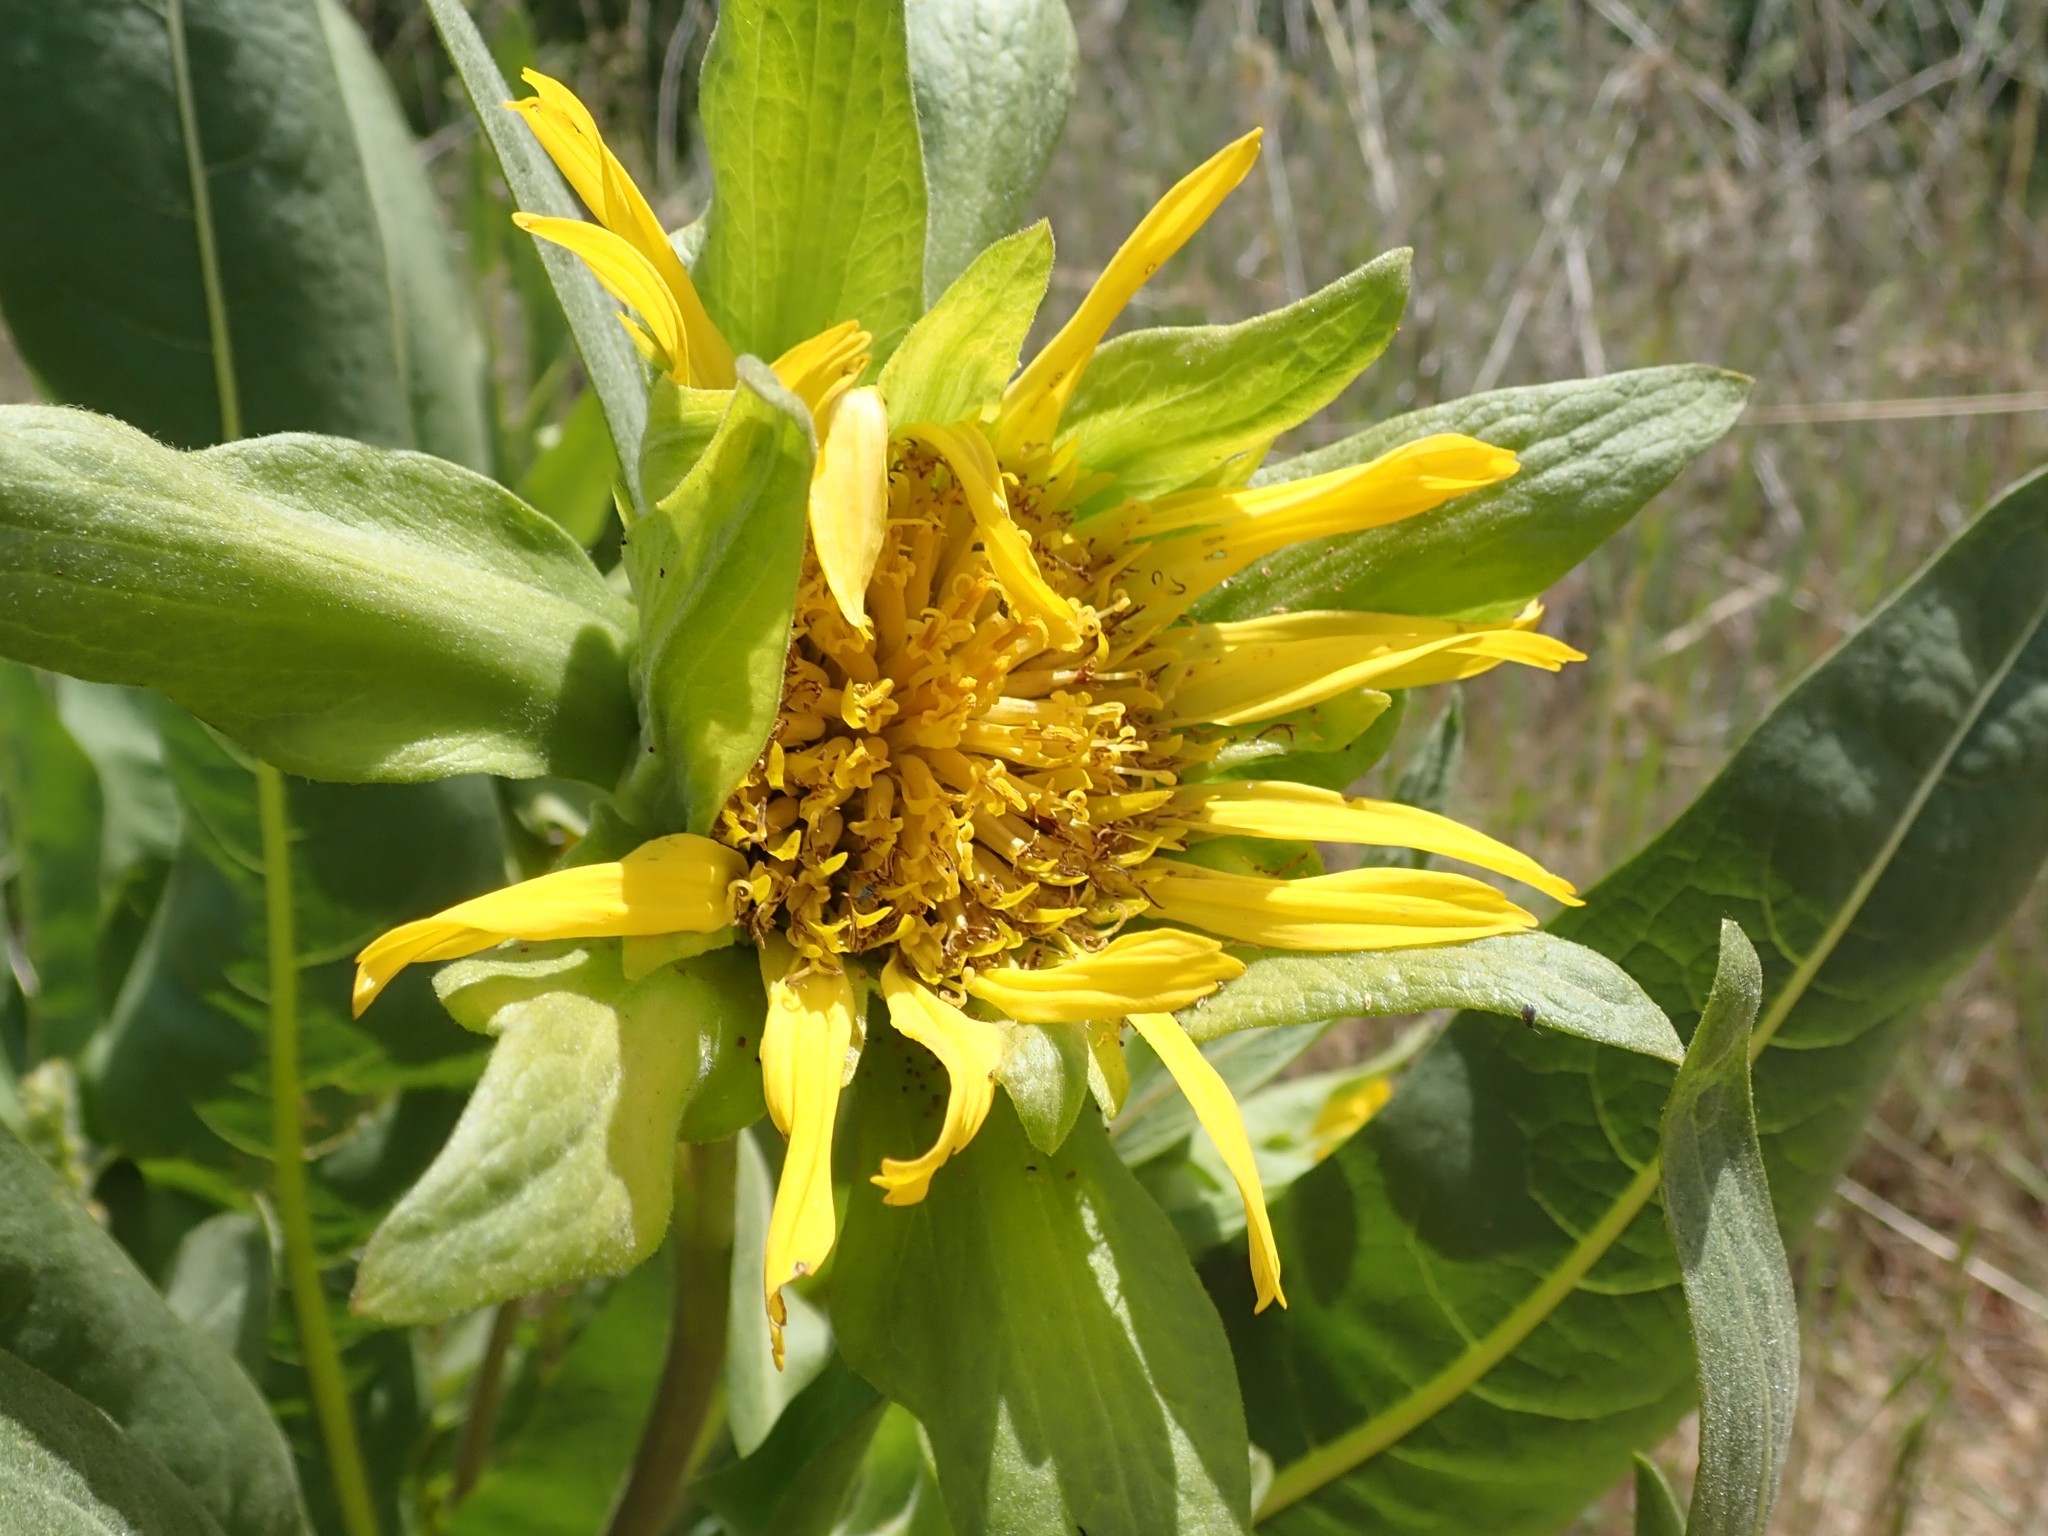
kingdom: Plantae
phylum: Tracheophyta
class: Magnoliopsida
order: Asterales
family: Asteraceae
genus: Wyethia
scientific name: Wyethia glabra
